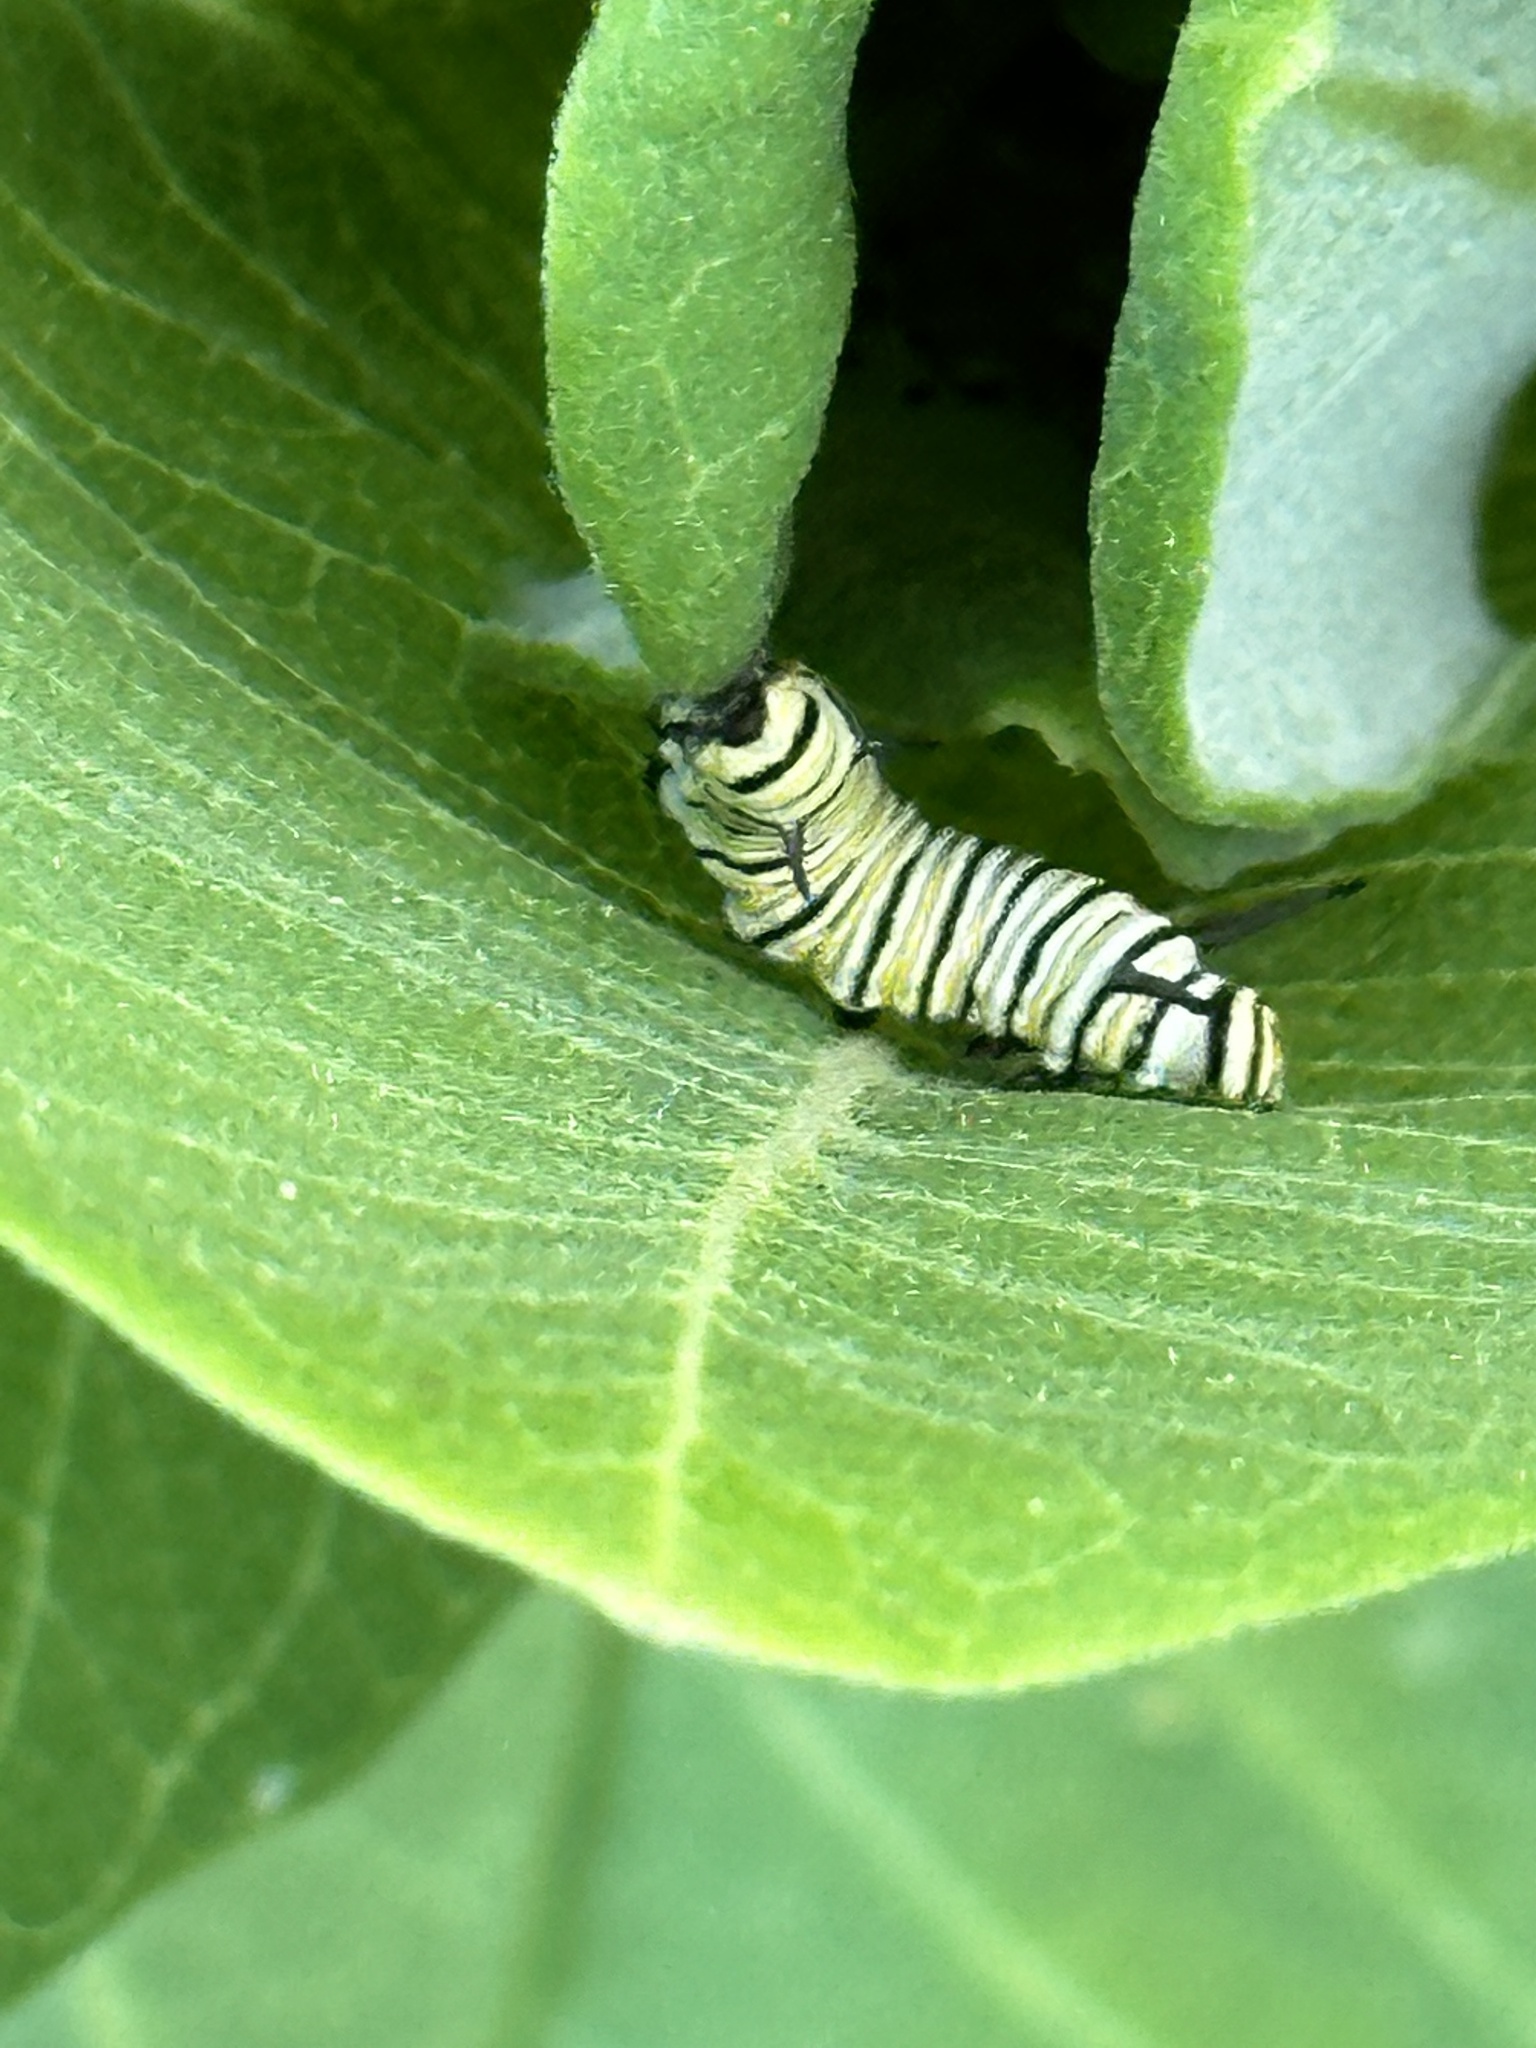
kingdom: Animalia
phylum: Arthropoda
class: Insecta
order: Lepidoptera
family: Nymphalidae
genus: Danaus
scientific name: Danaus plexippus
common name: Monarch
